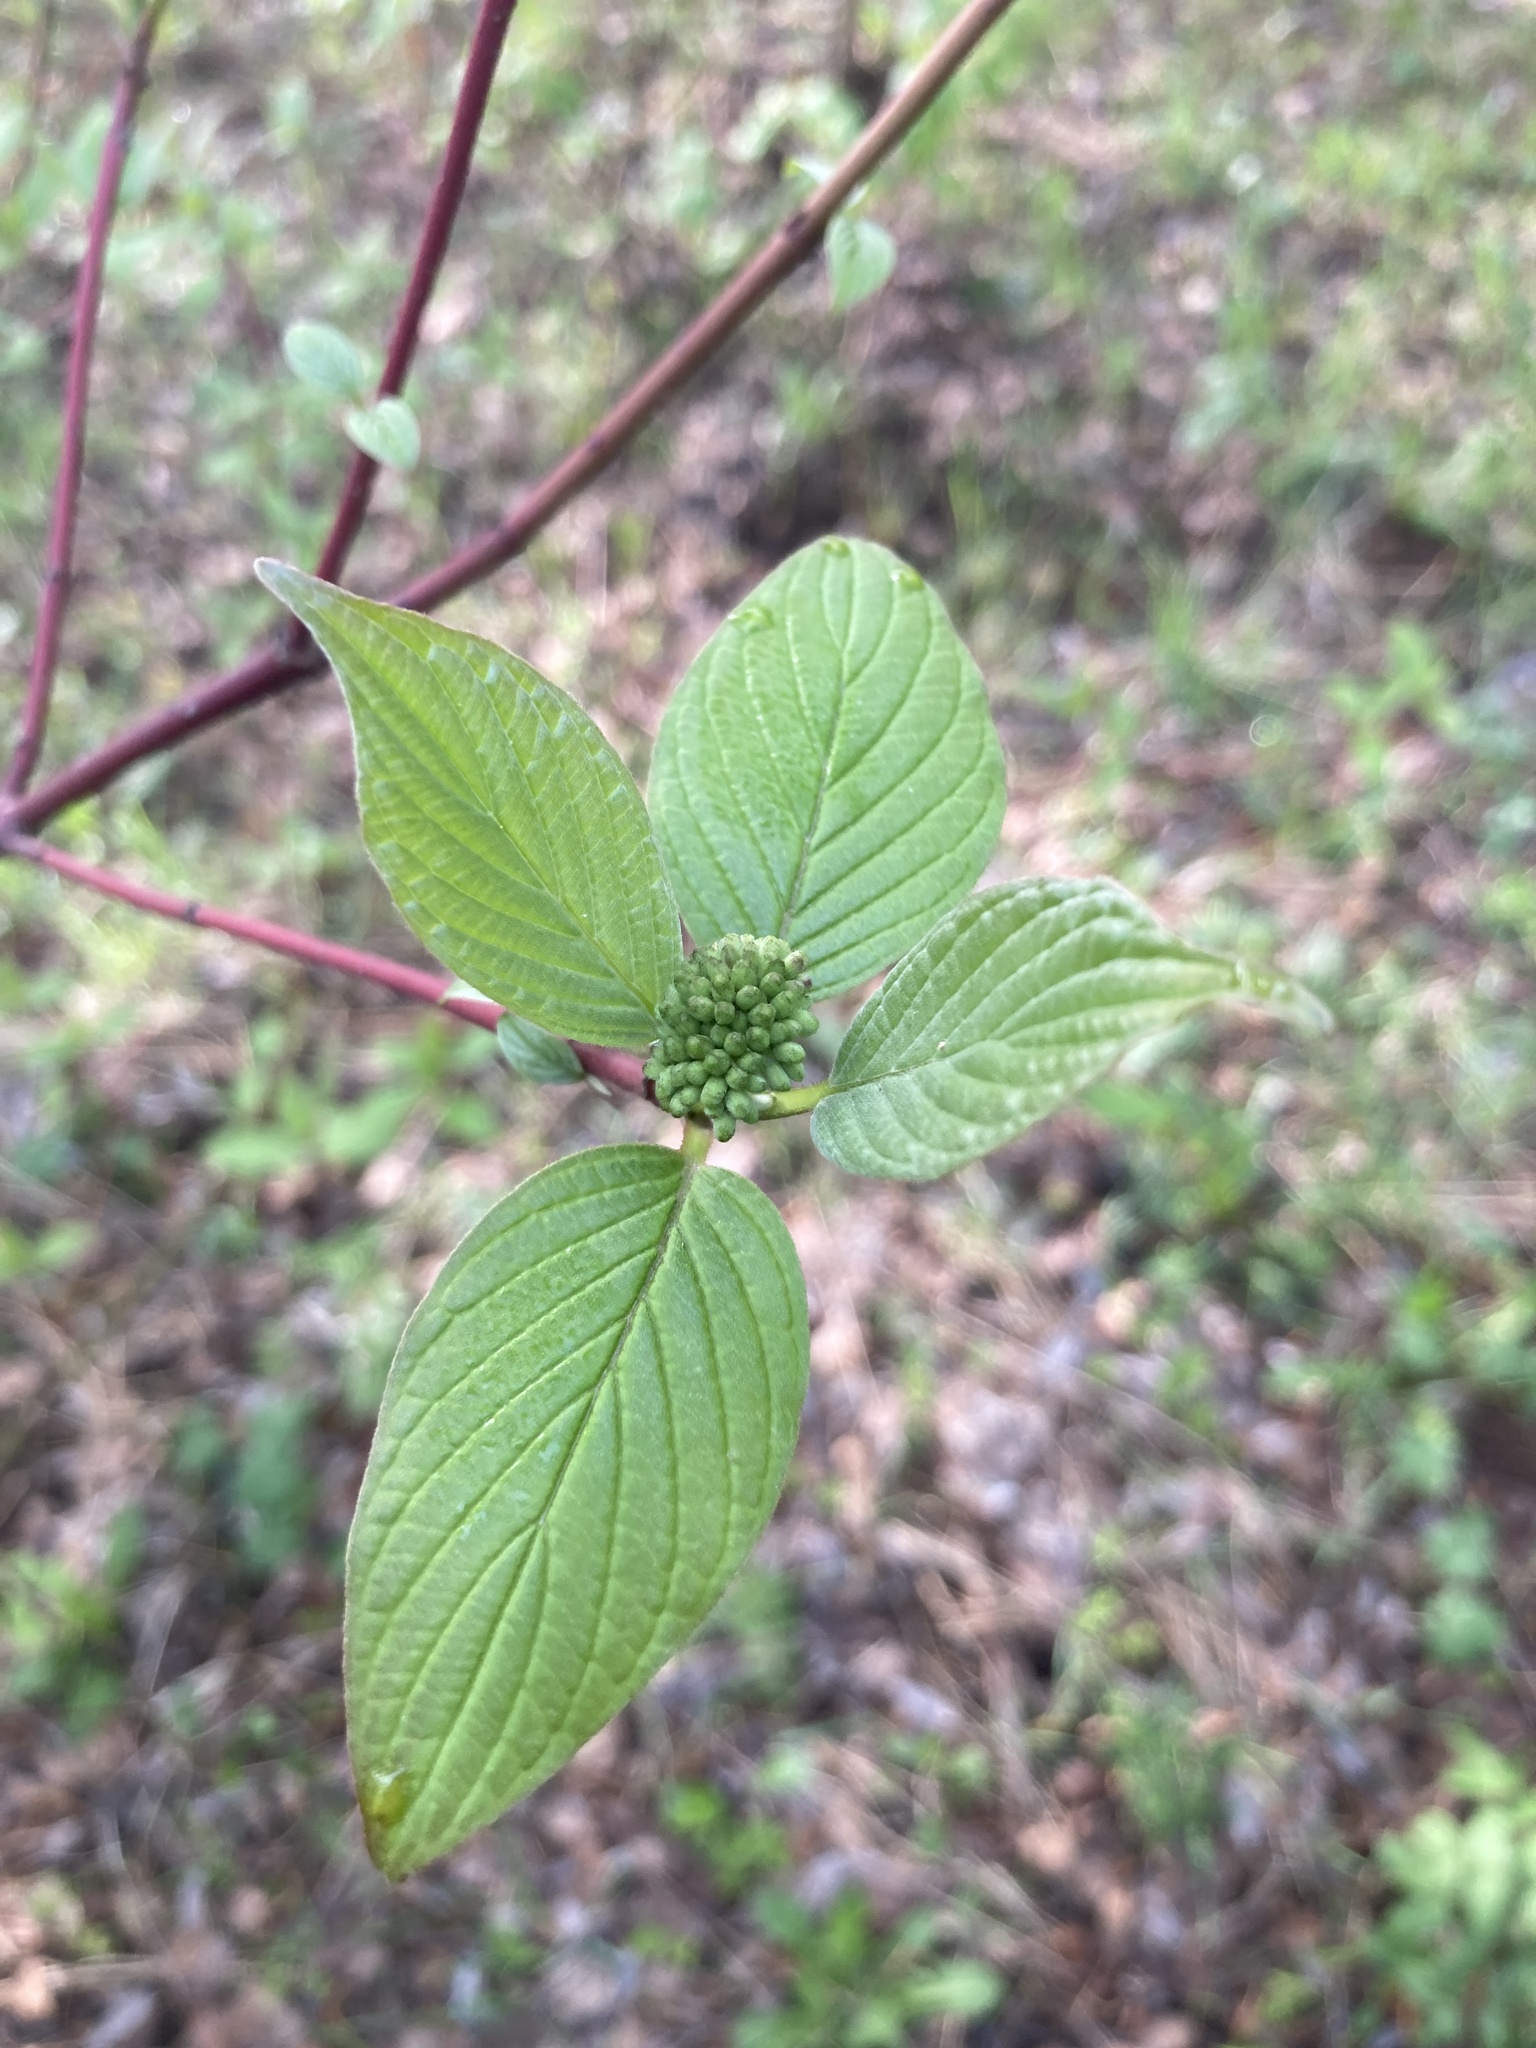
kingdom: Plantae
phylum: Tracheophyta
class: Magnoliopsida
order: Cornales
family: Cornaceae
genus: Cornus
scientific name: Cornus sericea
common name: Red-osier dogwood
